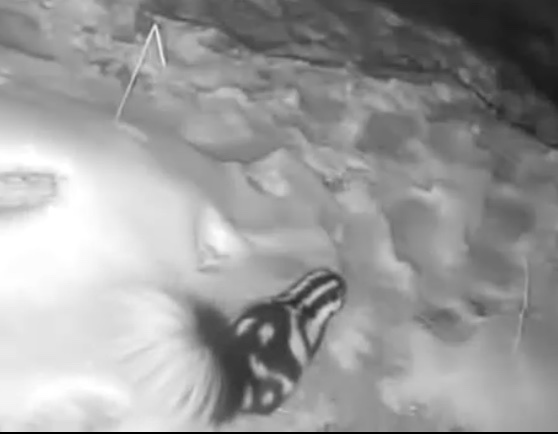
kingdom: Animalia
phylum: Chordata
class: Mammalia
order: Carnivora
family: Mephitidae
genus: Spilogale
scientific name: Spilogale gracilis
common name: Western spotted skunk
